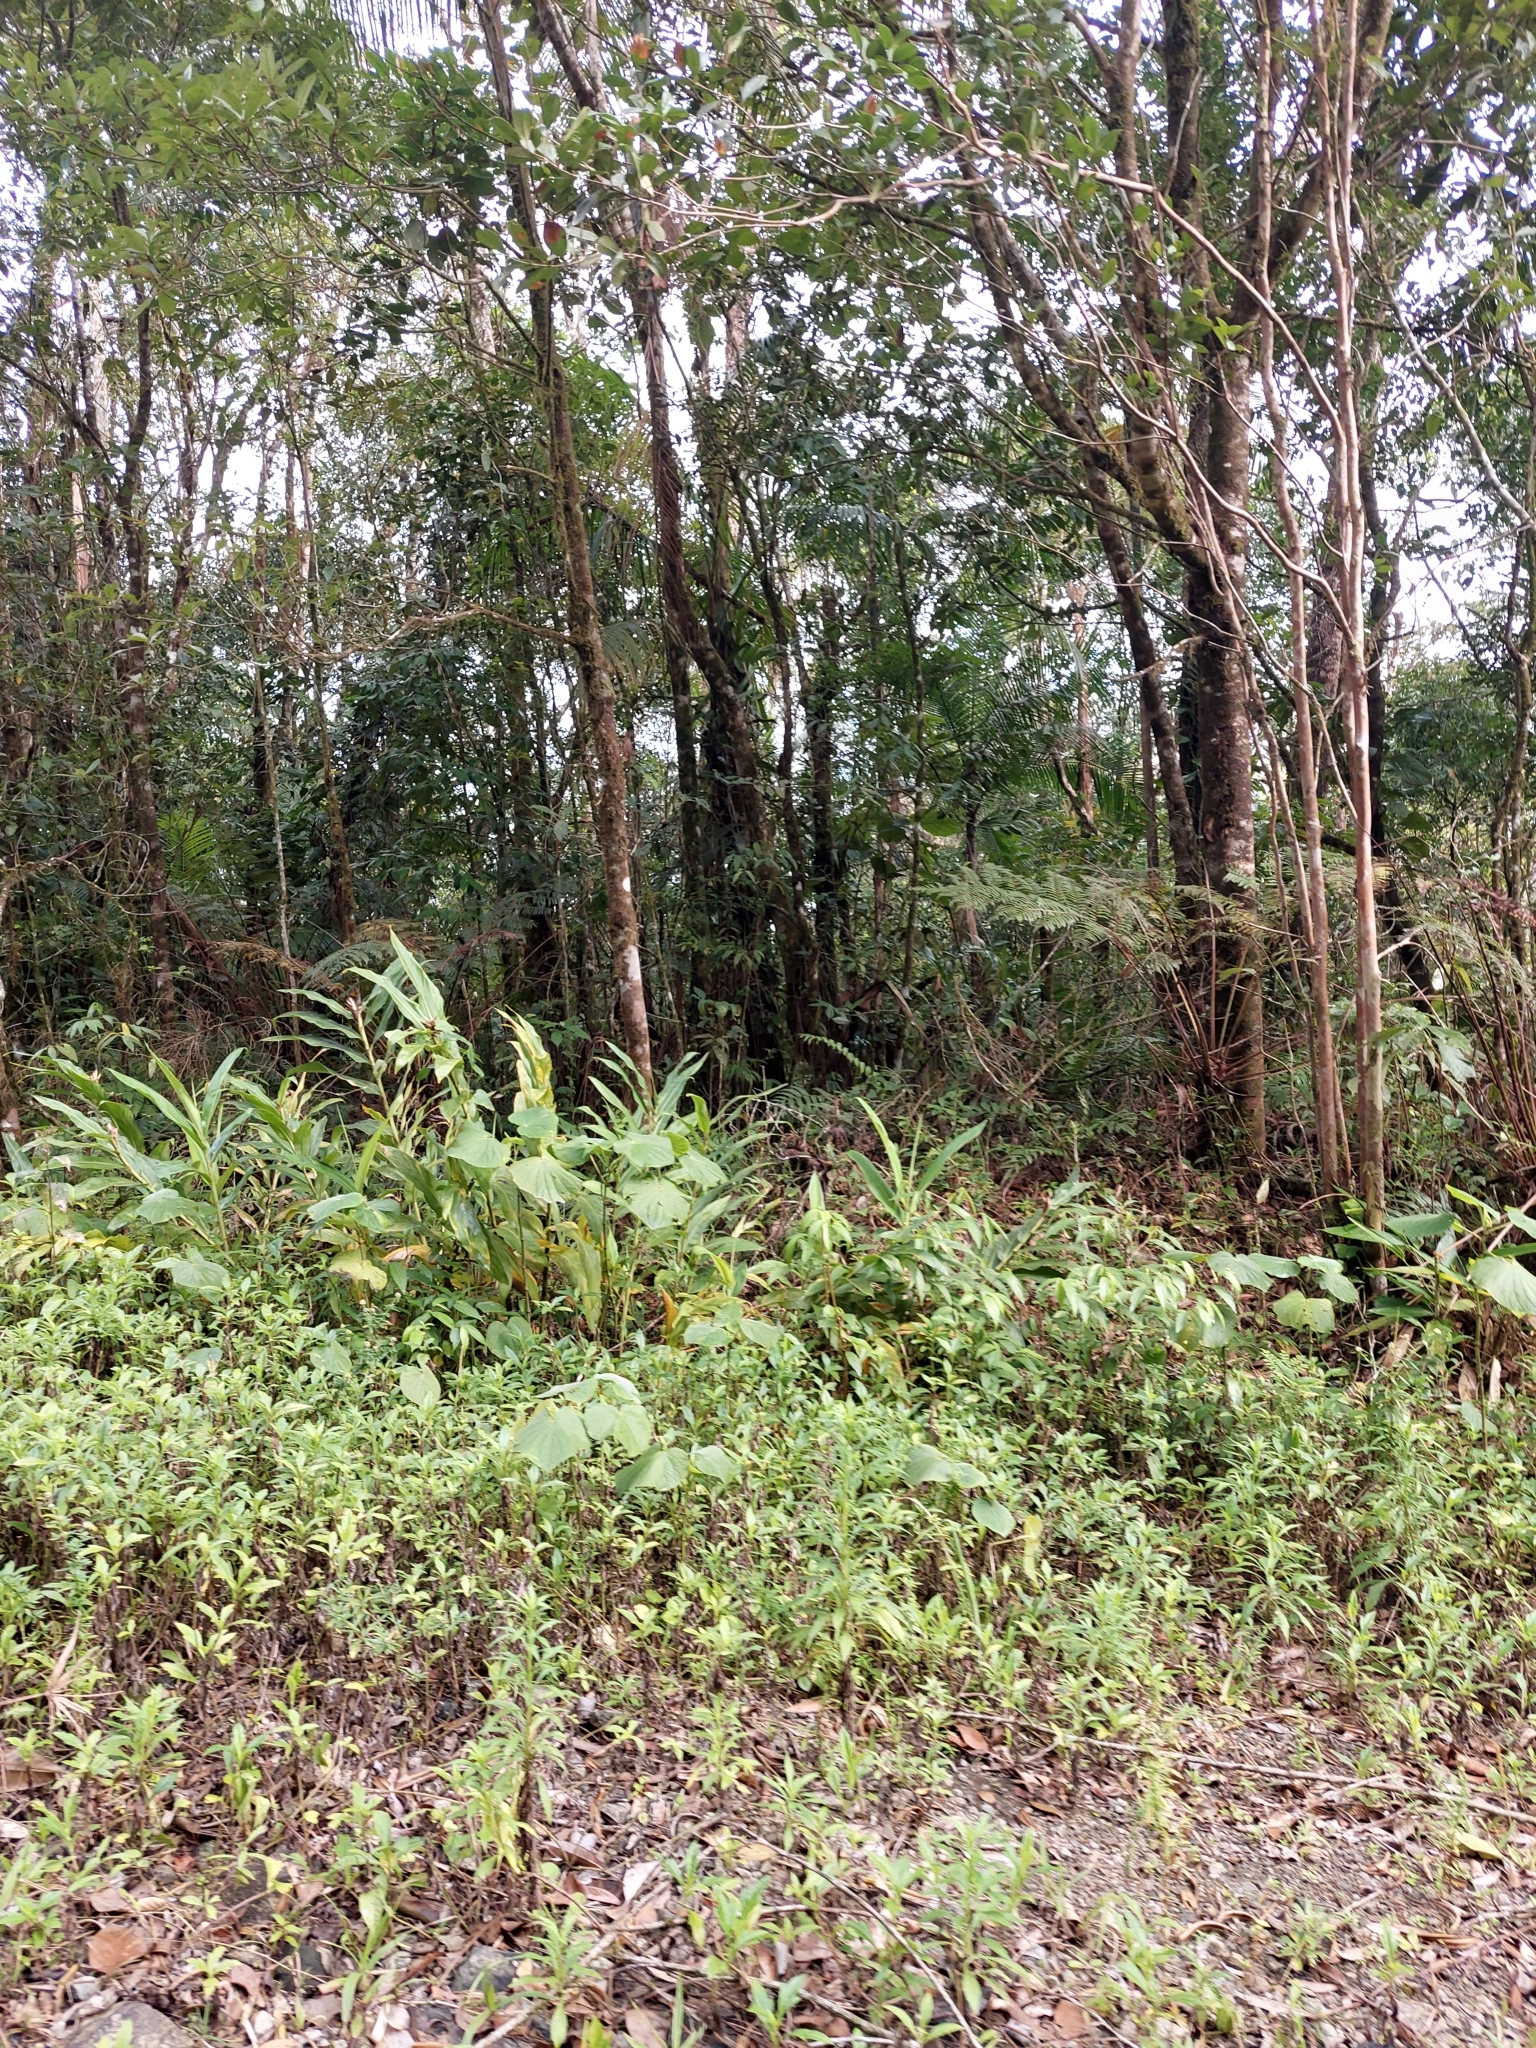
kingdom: Plantae
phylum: Tracheophyta
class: Liliopsida
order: Zingiberales
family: Zingiberaceae
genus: Hedychium
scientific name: Hedychium coronarium
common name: White garland-lily
